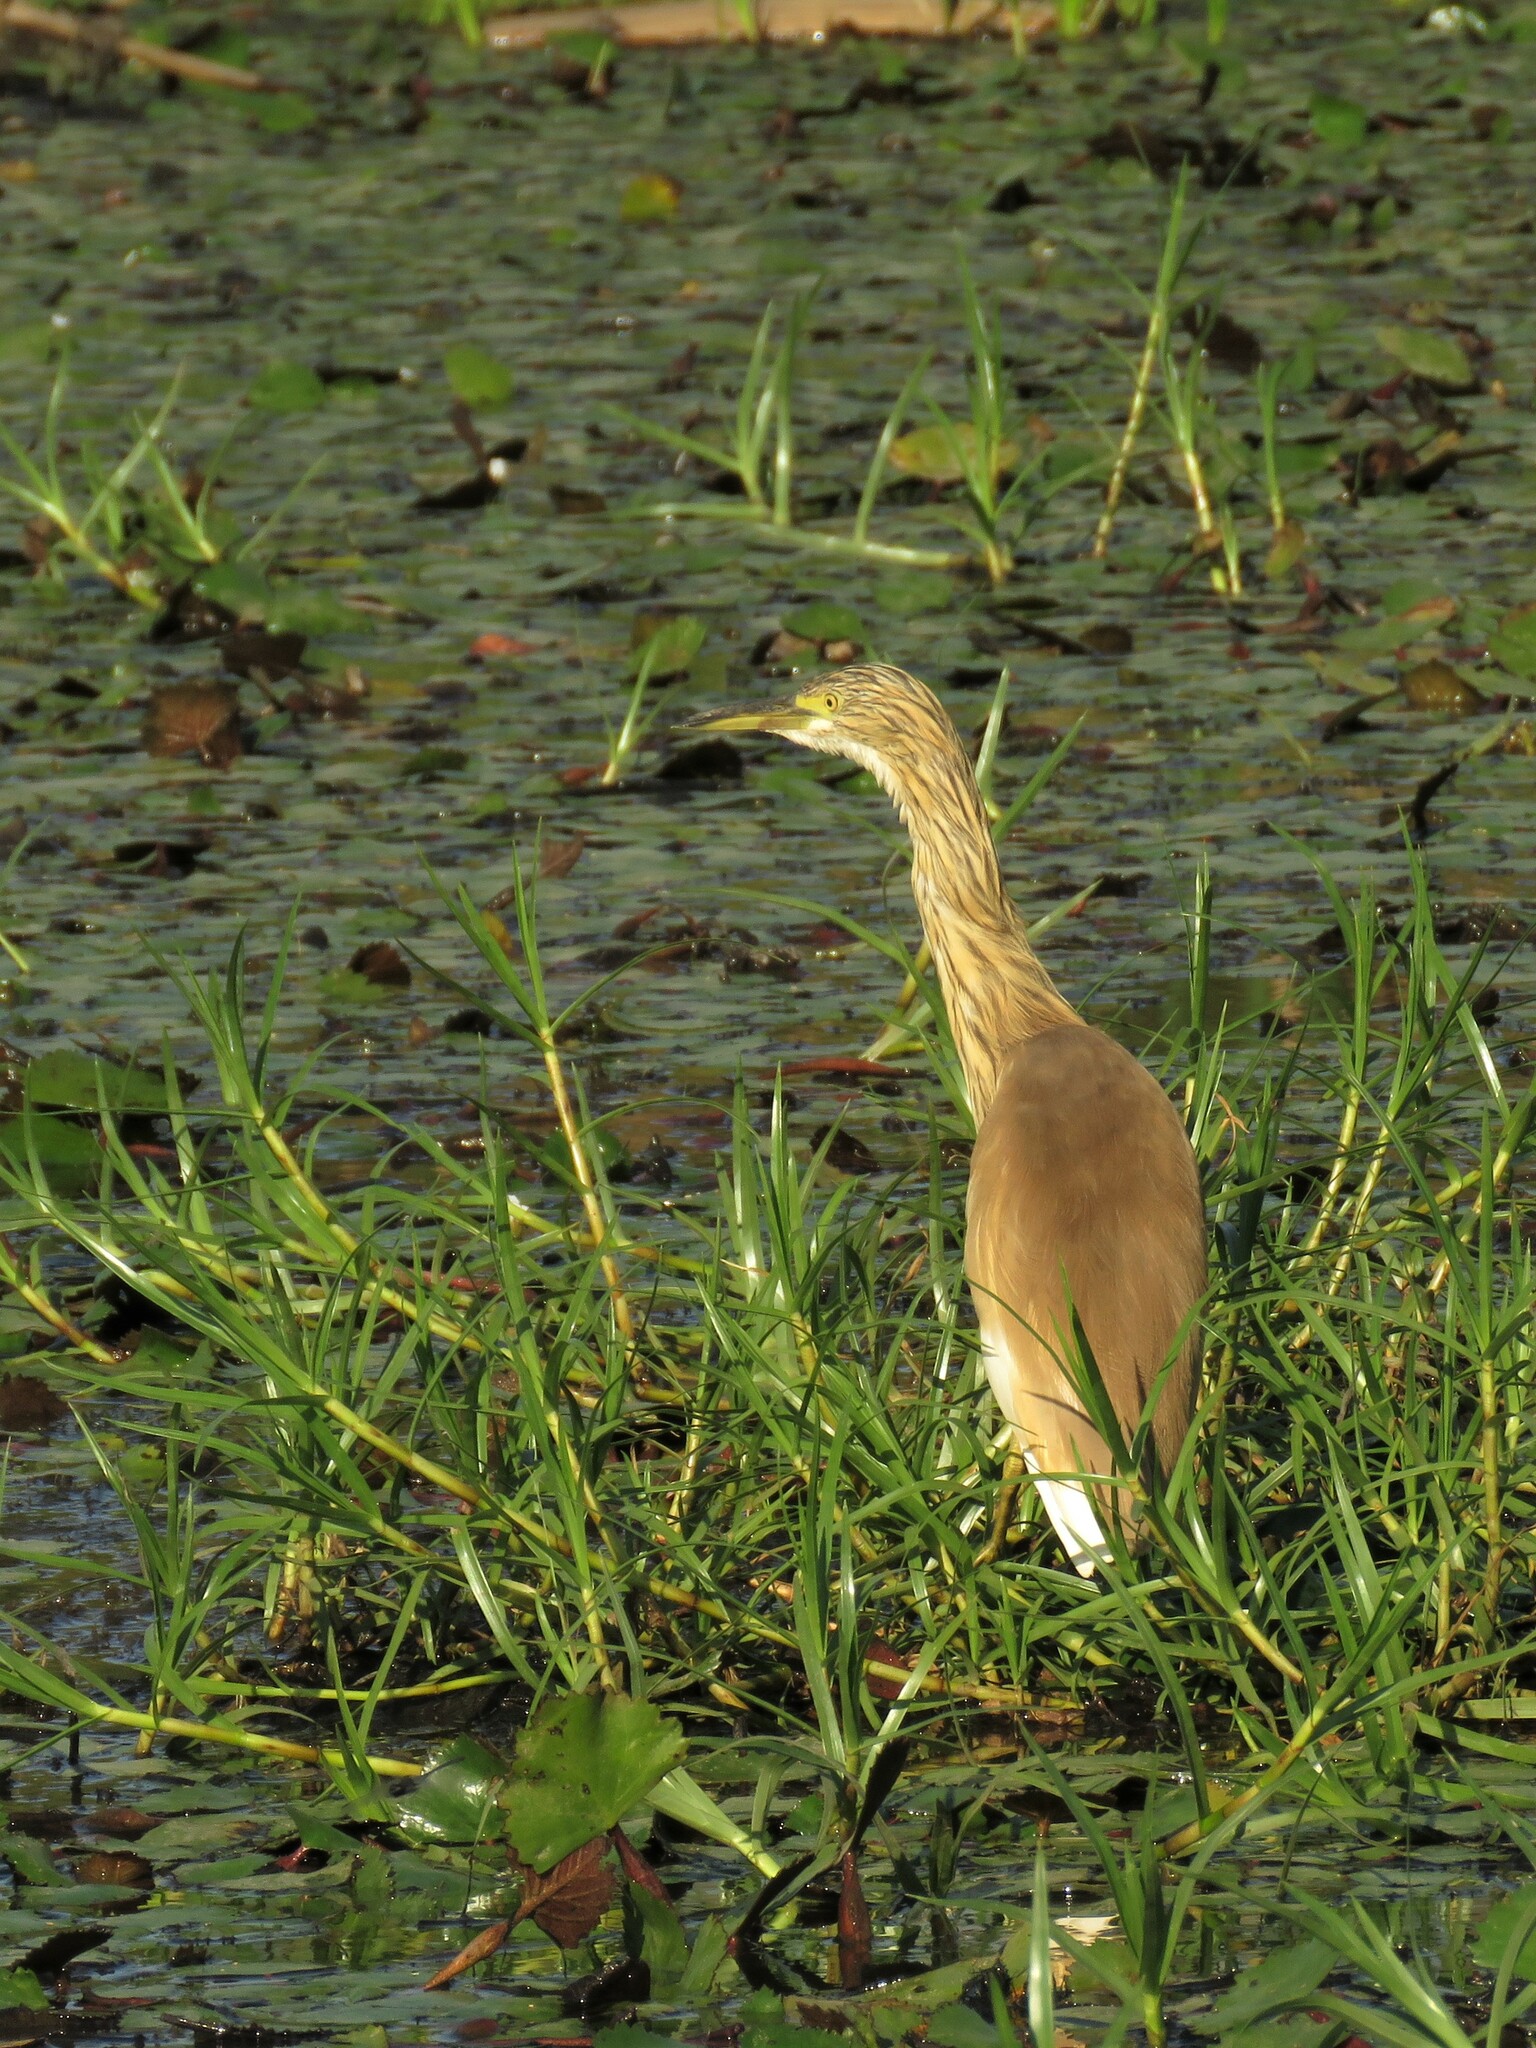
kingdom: Animalia
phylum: Chordata
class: Aves
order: Pelecaniformes
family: Ardeidae
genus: Ardeola
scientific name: Ardeola ralloides
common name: Squacco heron
